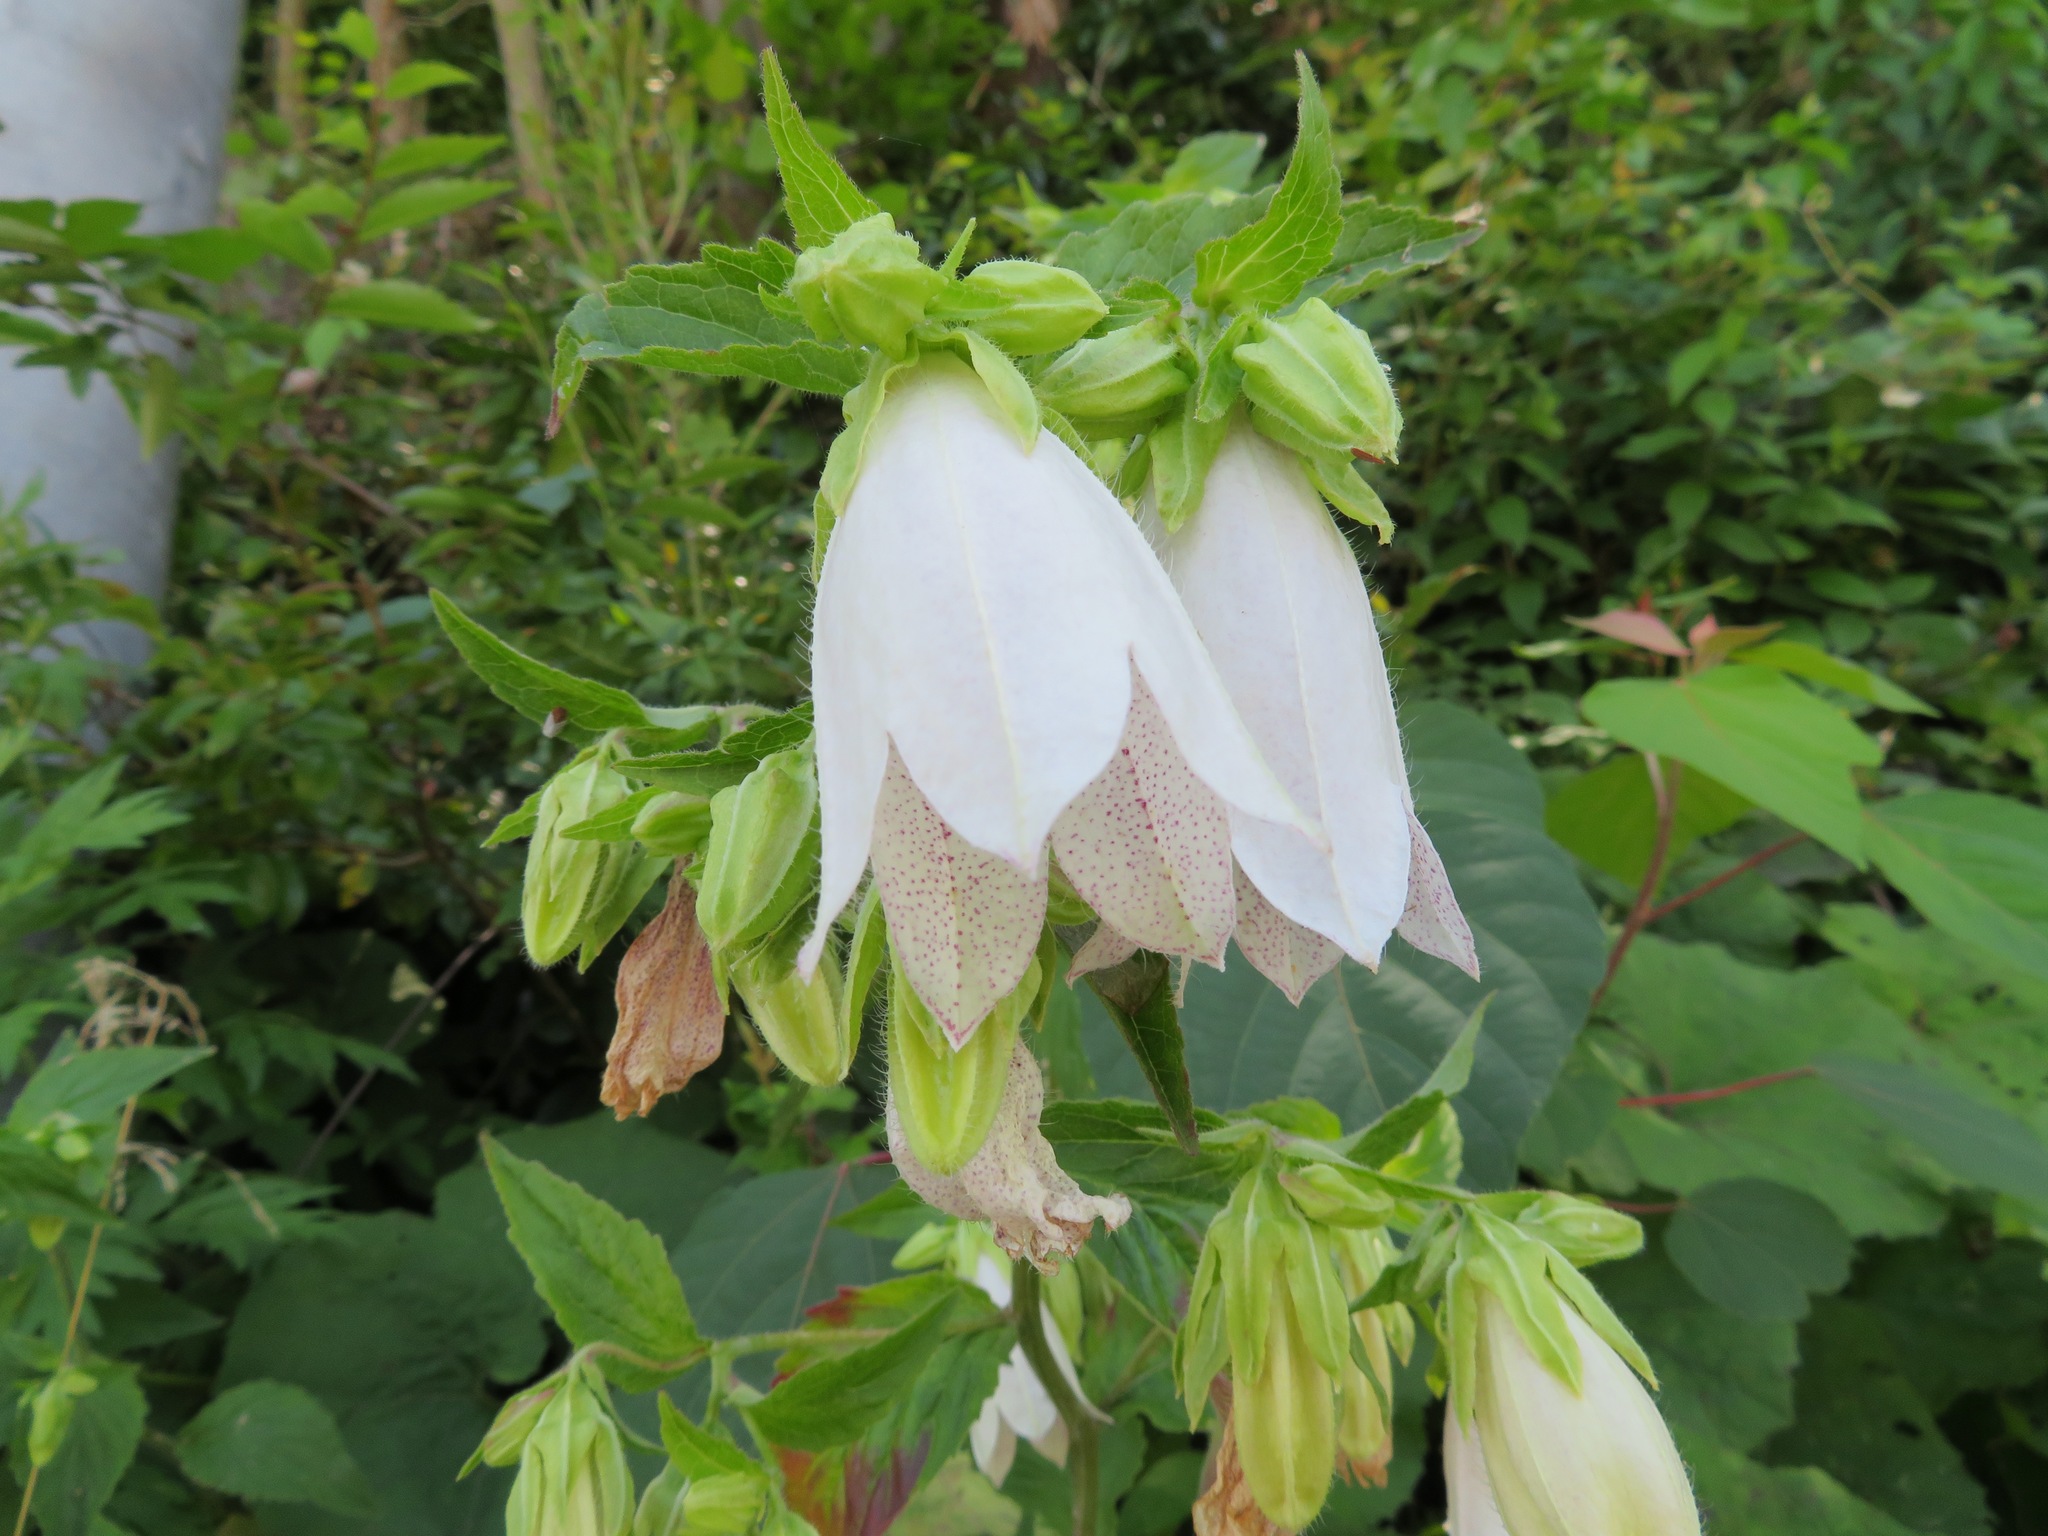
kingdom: Plantae
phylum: Tracheophyta
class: Magnoliopsida
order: Asterales
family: Campanulaceae
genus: Campanula
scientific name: Campanula punctata
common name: Spotted bellflower
